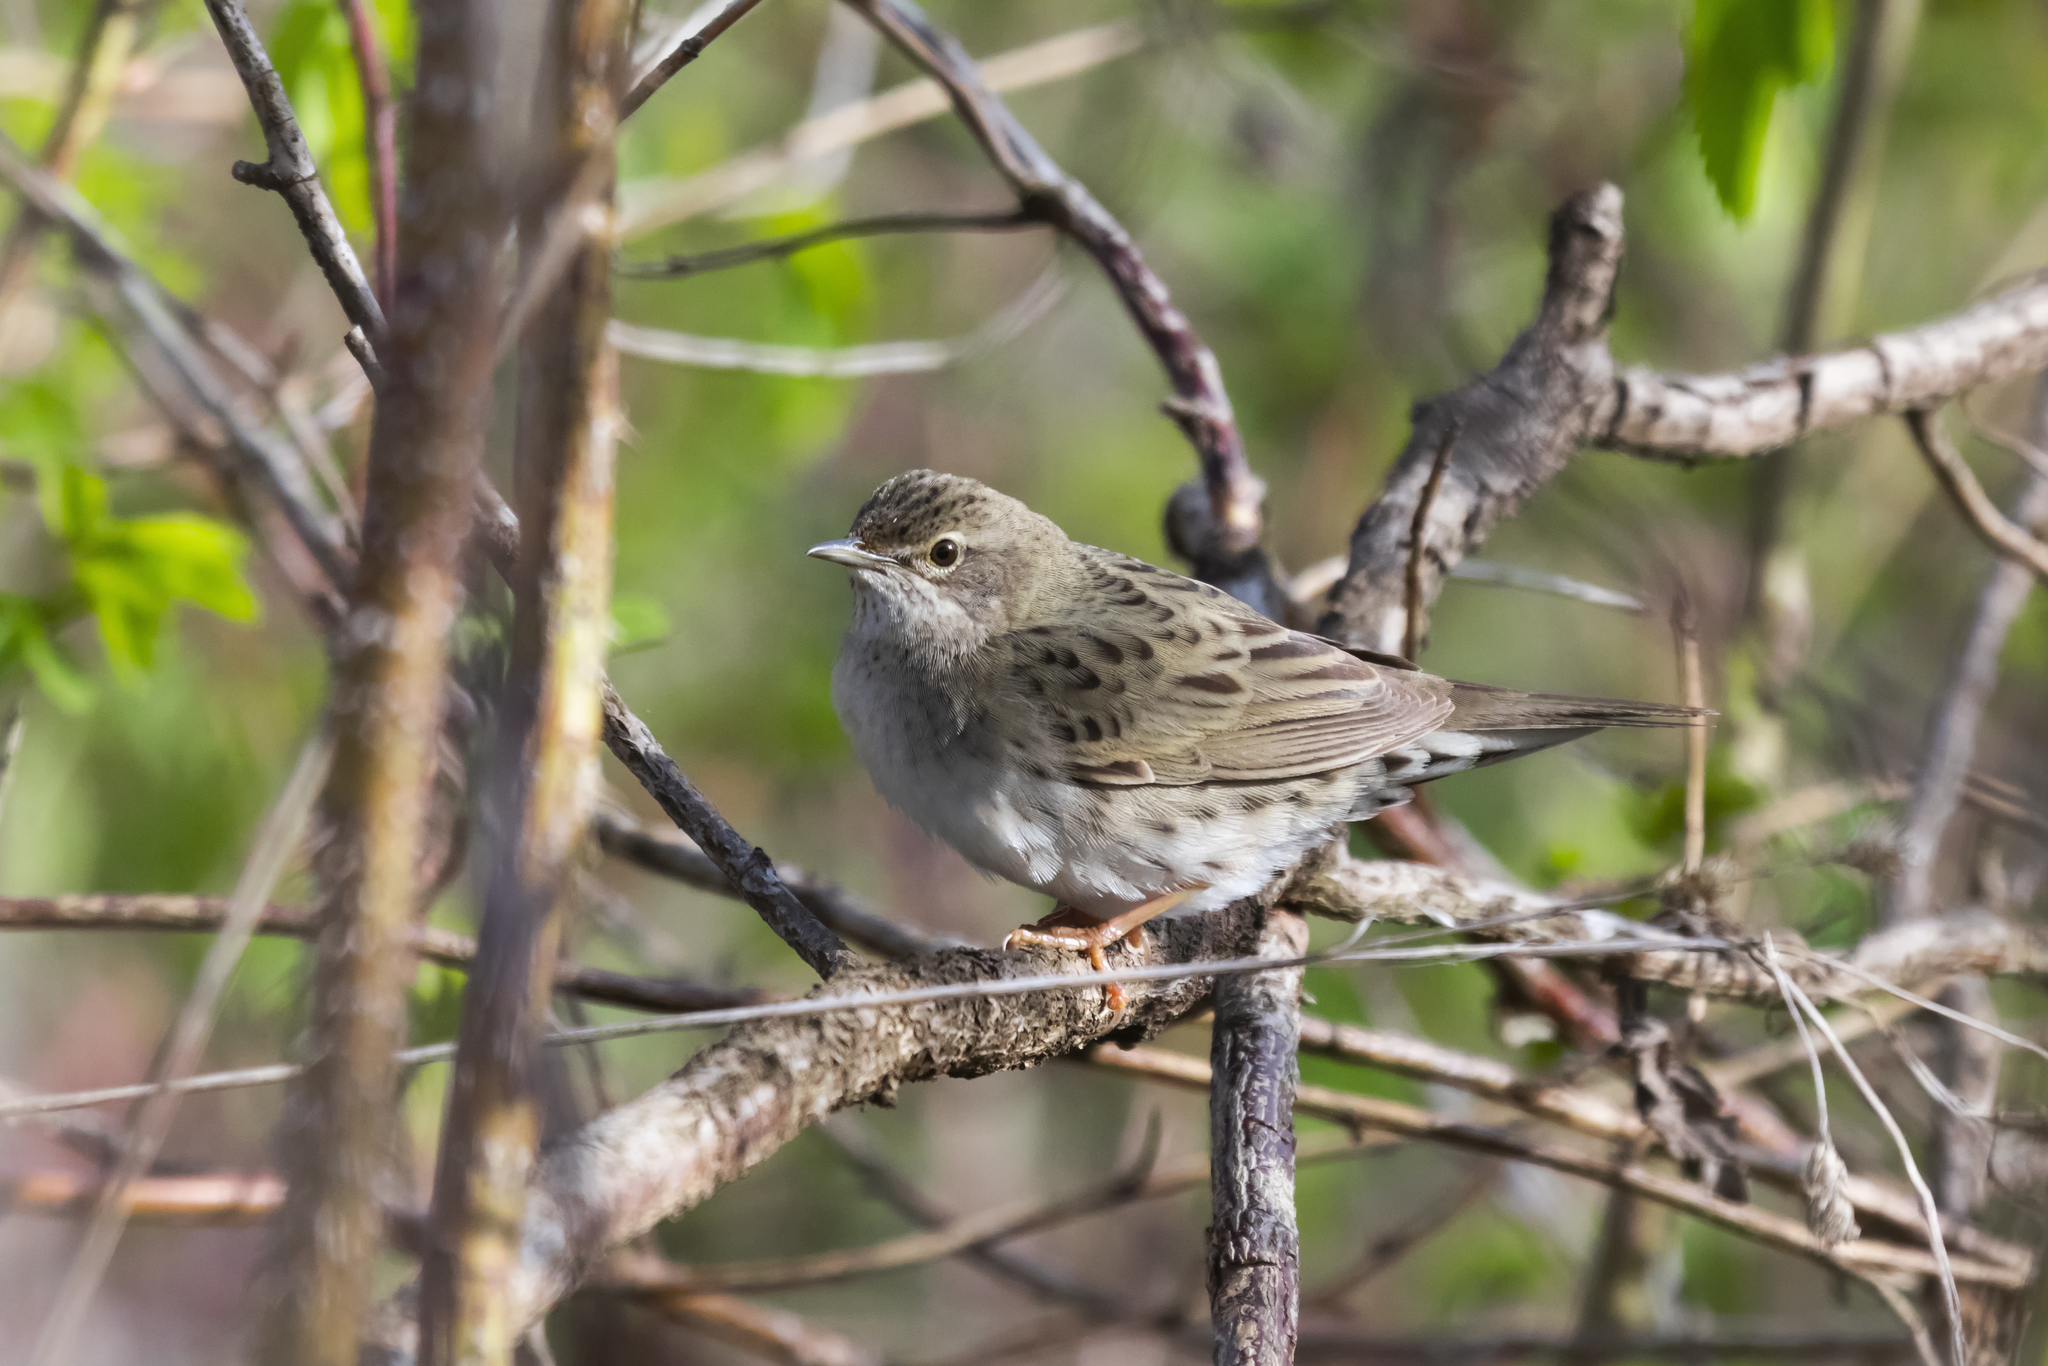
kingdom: Animalia
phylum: Chordata
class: Aves
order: Passeriformes
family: Locustellidae
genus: Locustella
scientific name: Locustella naevia
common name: Common grasshopper warbler
